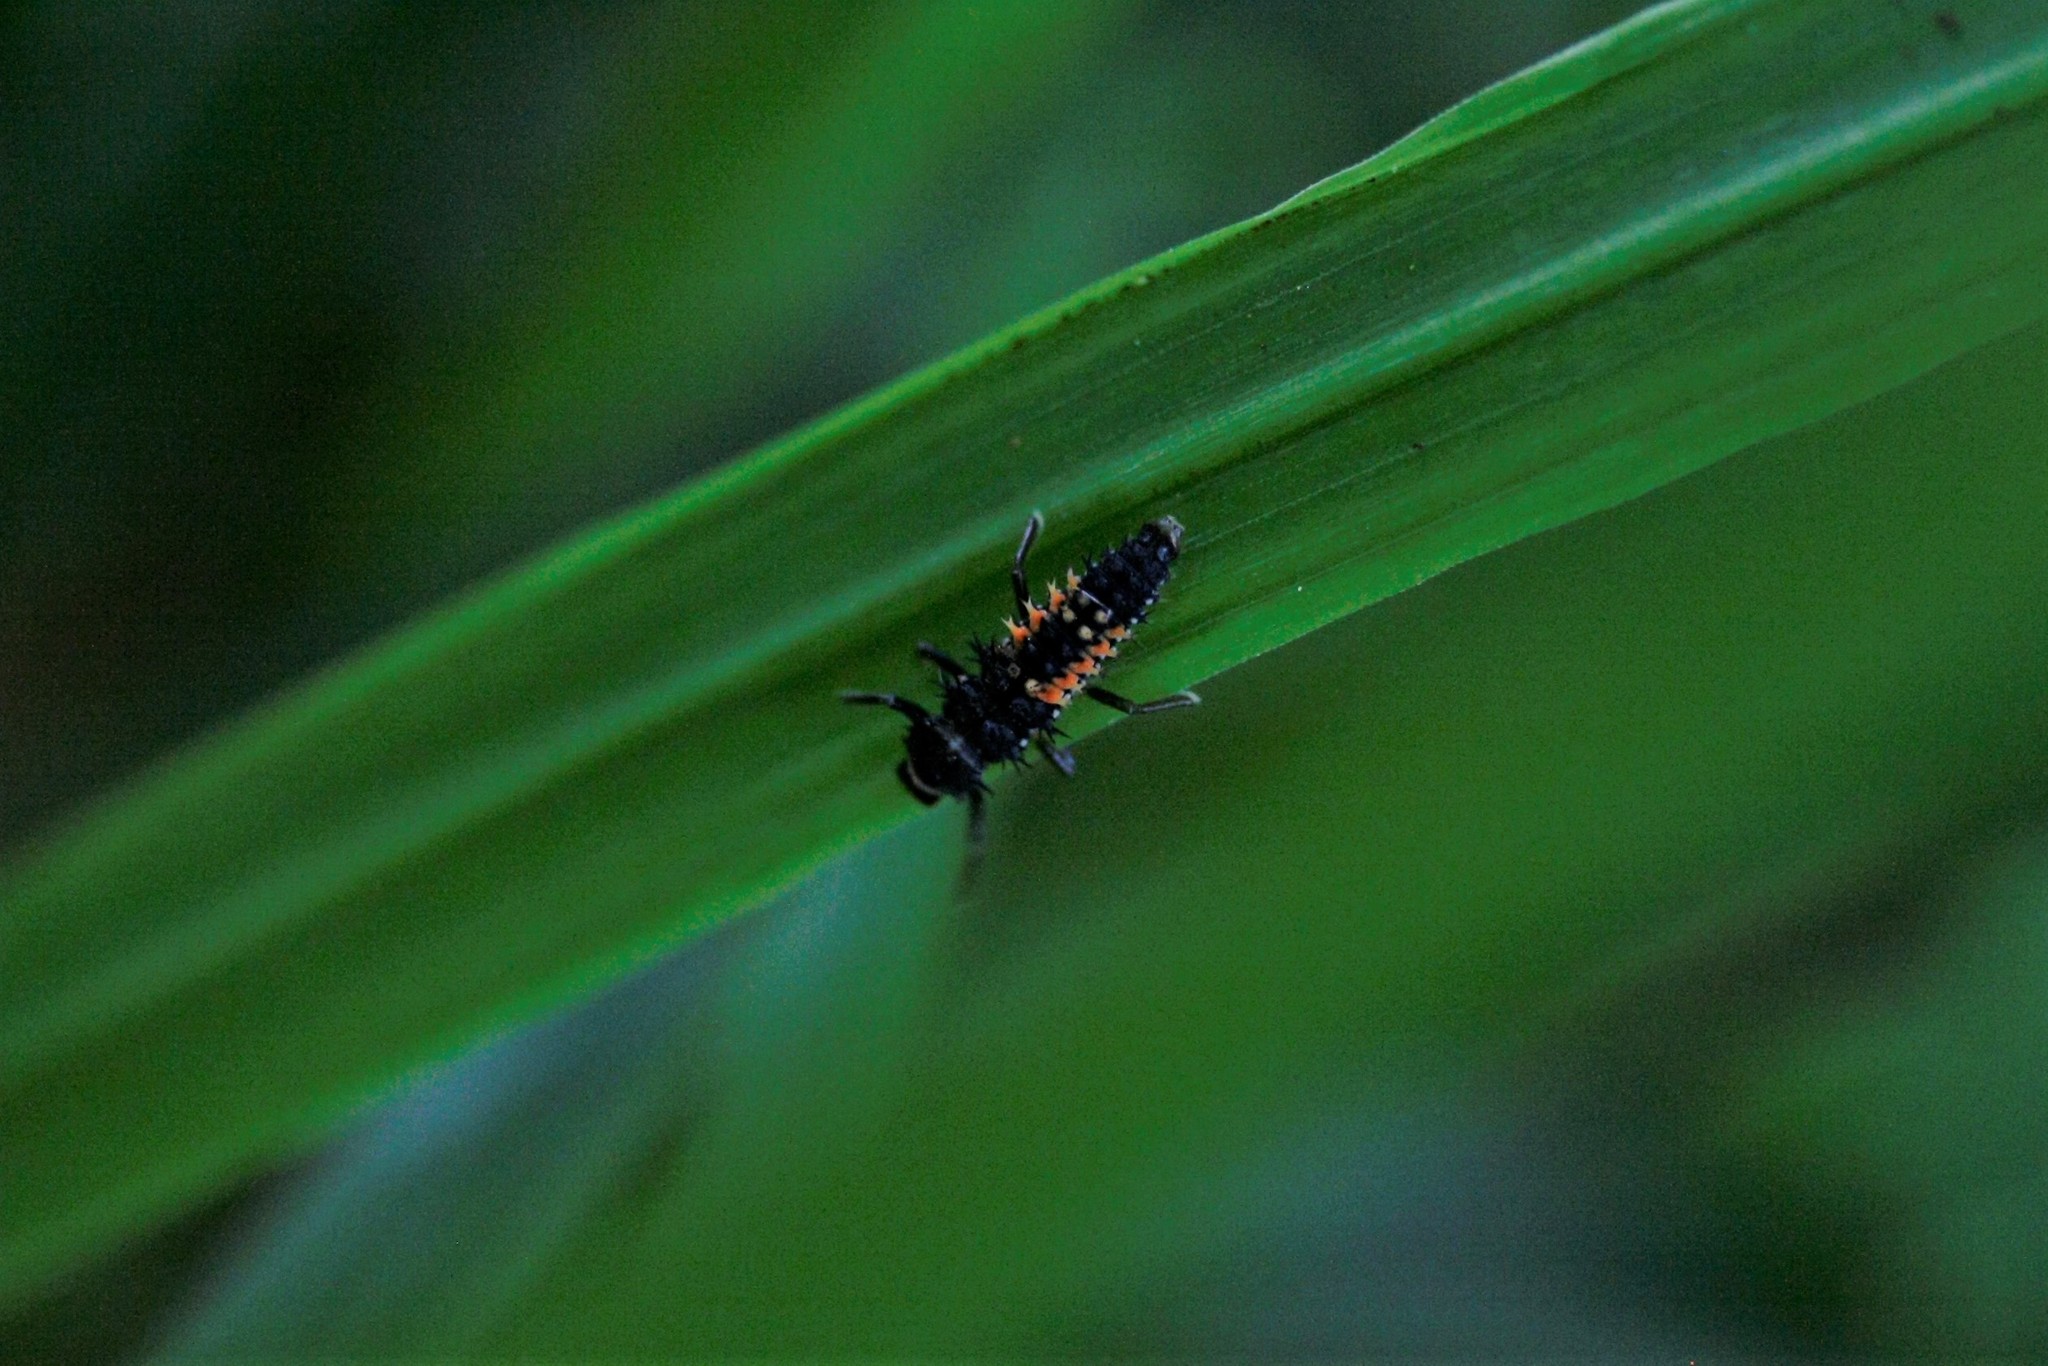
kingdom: Animalia
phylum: Arthropoda
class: Insecta
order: Coleoptera
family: Coccinellidae
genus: Harmonia
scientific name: Harmonia axyridis
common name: Harlequin ladybird
